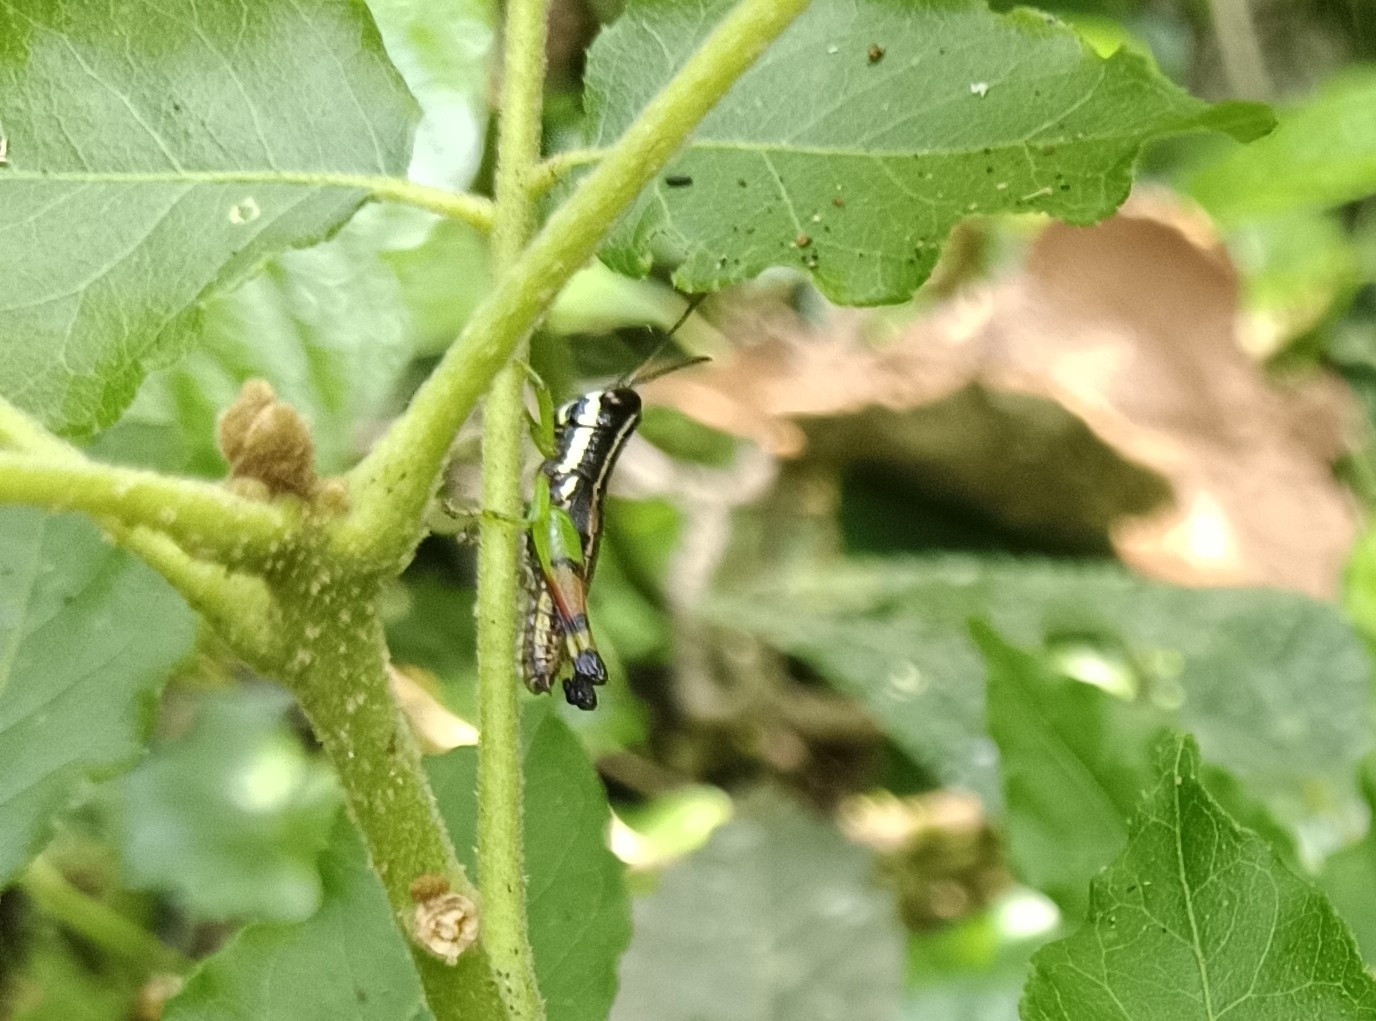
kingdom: Animalia
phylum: Arthropoda
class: Insecta
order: Orthoptera
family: Acrididae
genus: Chitaura
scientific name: Chitaura indica
